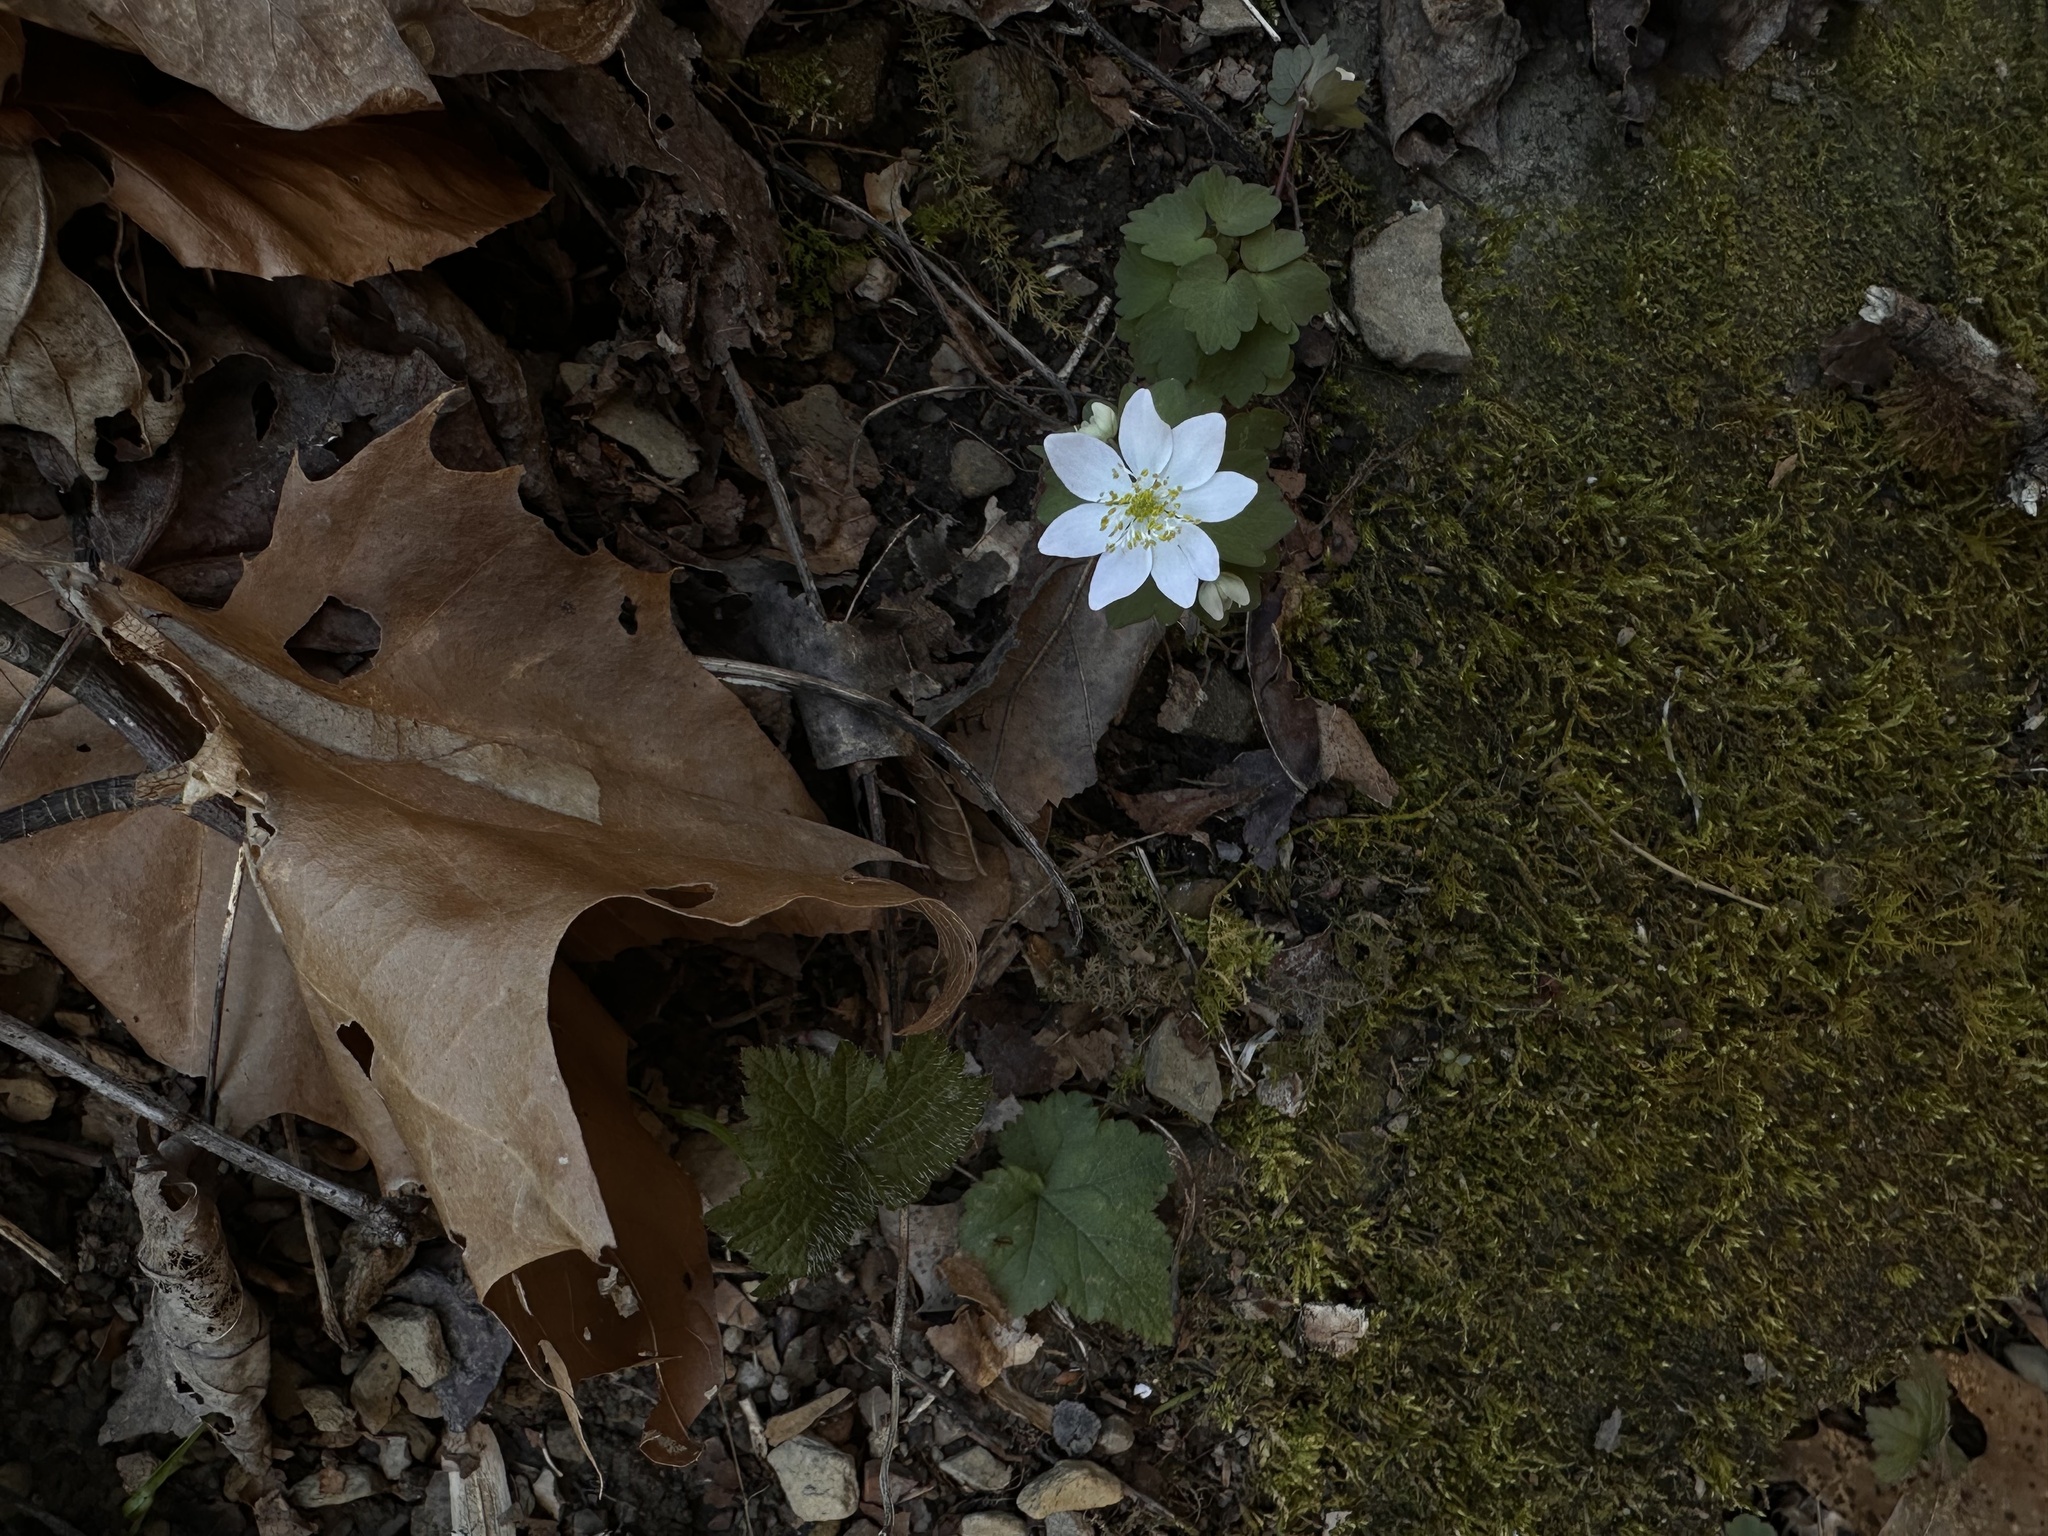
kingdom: Plantae
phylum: Tracheophyta
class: Magnoliopsida
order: Ranunculales
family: Ranunculaceae
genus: Thalictrum
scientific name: Thalictrum thalictroides
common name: Rue-anemone
